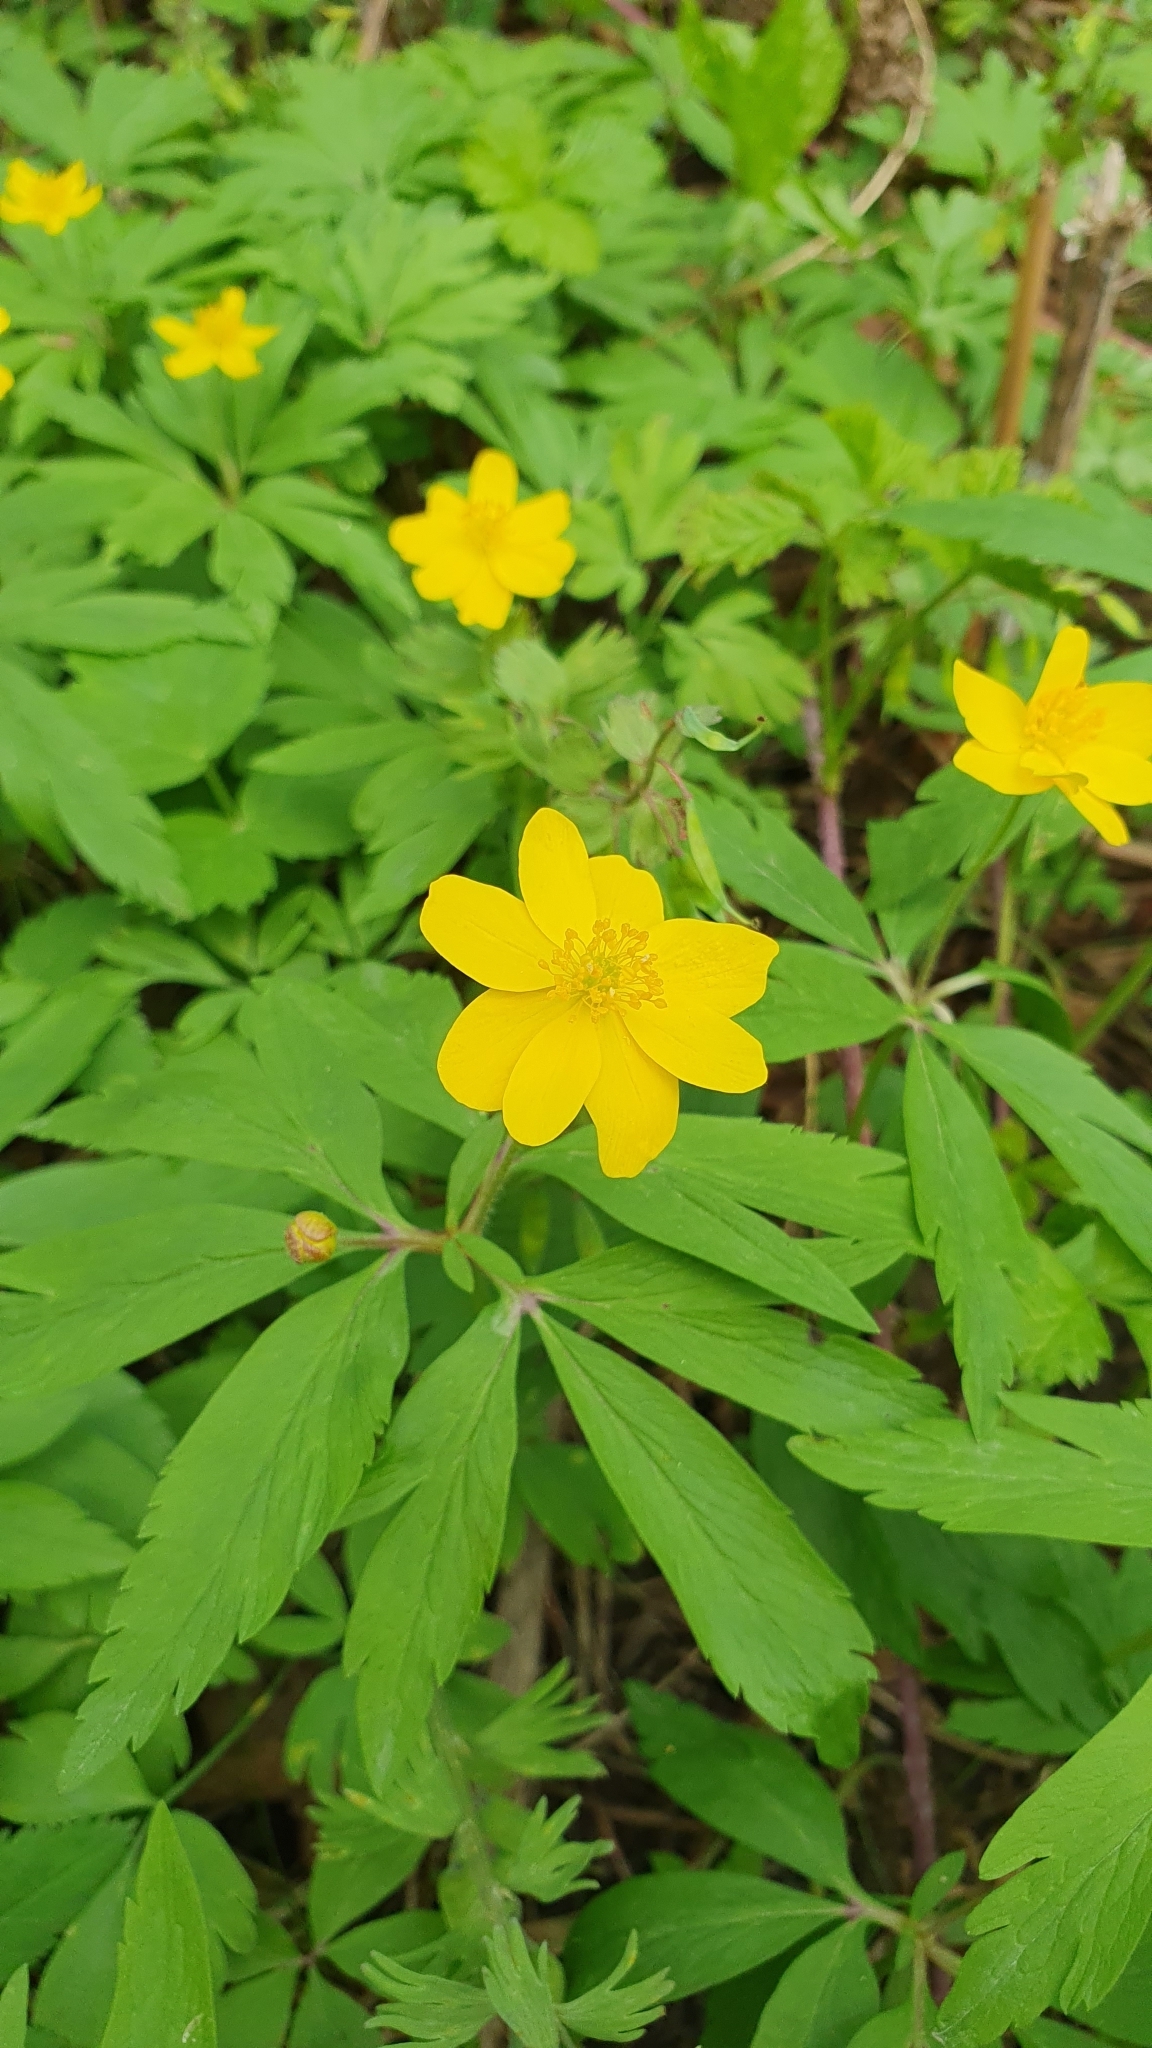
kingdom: Plantae
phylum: Tracheophyta
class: Magnoliopsida
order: Ranunculales
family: Ranunculaceae
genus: Anemone
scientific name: Anemone ranunculoides
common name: Yellow anemone
